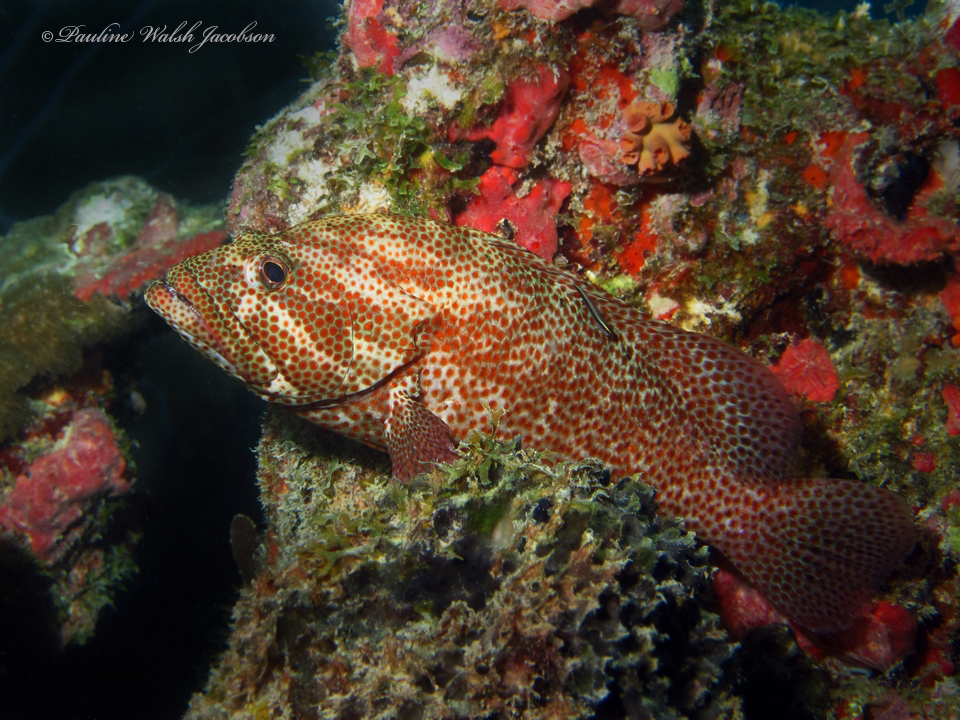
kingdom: Animalia
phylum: Chordata
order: Perciformes
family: Serranidae
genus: Cephalopholis
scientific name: Cephalopholis cruentata
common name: Graysby
